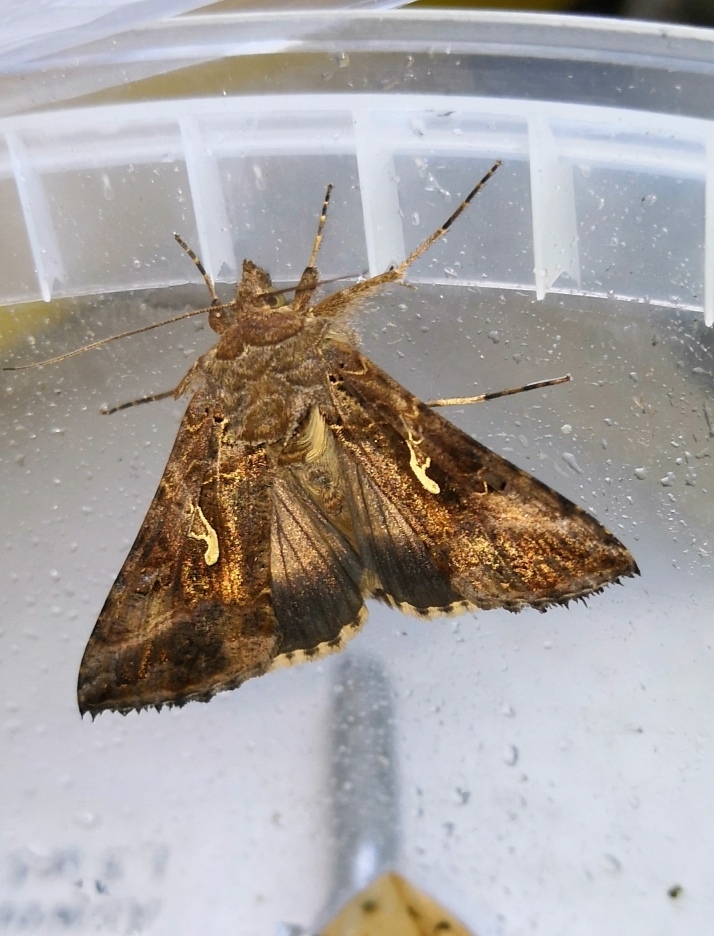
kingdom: Animalia
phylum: Arthropoda
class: Insecta
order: Lepidoptera
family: Noctuidae
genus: Autographa
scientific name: Autographa gamma
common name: Silver y
